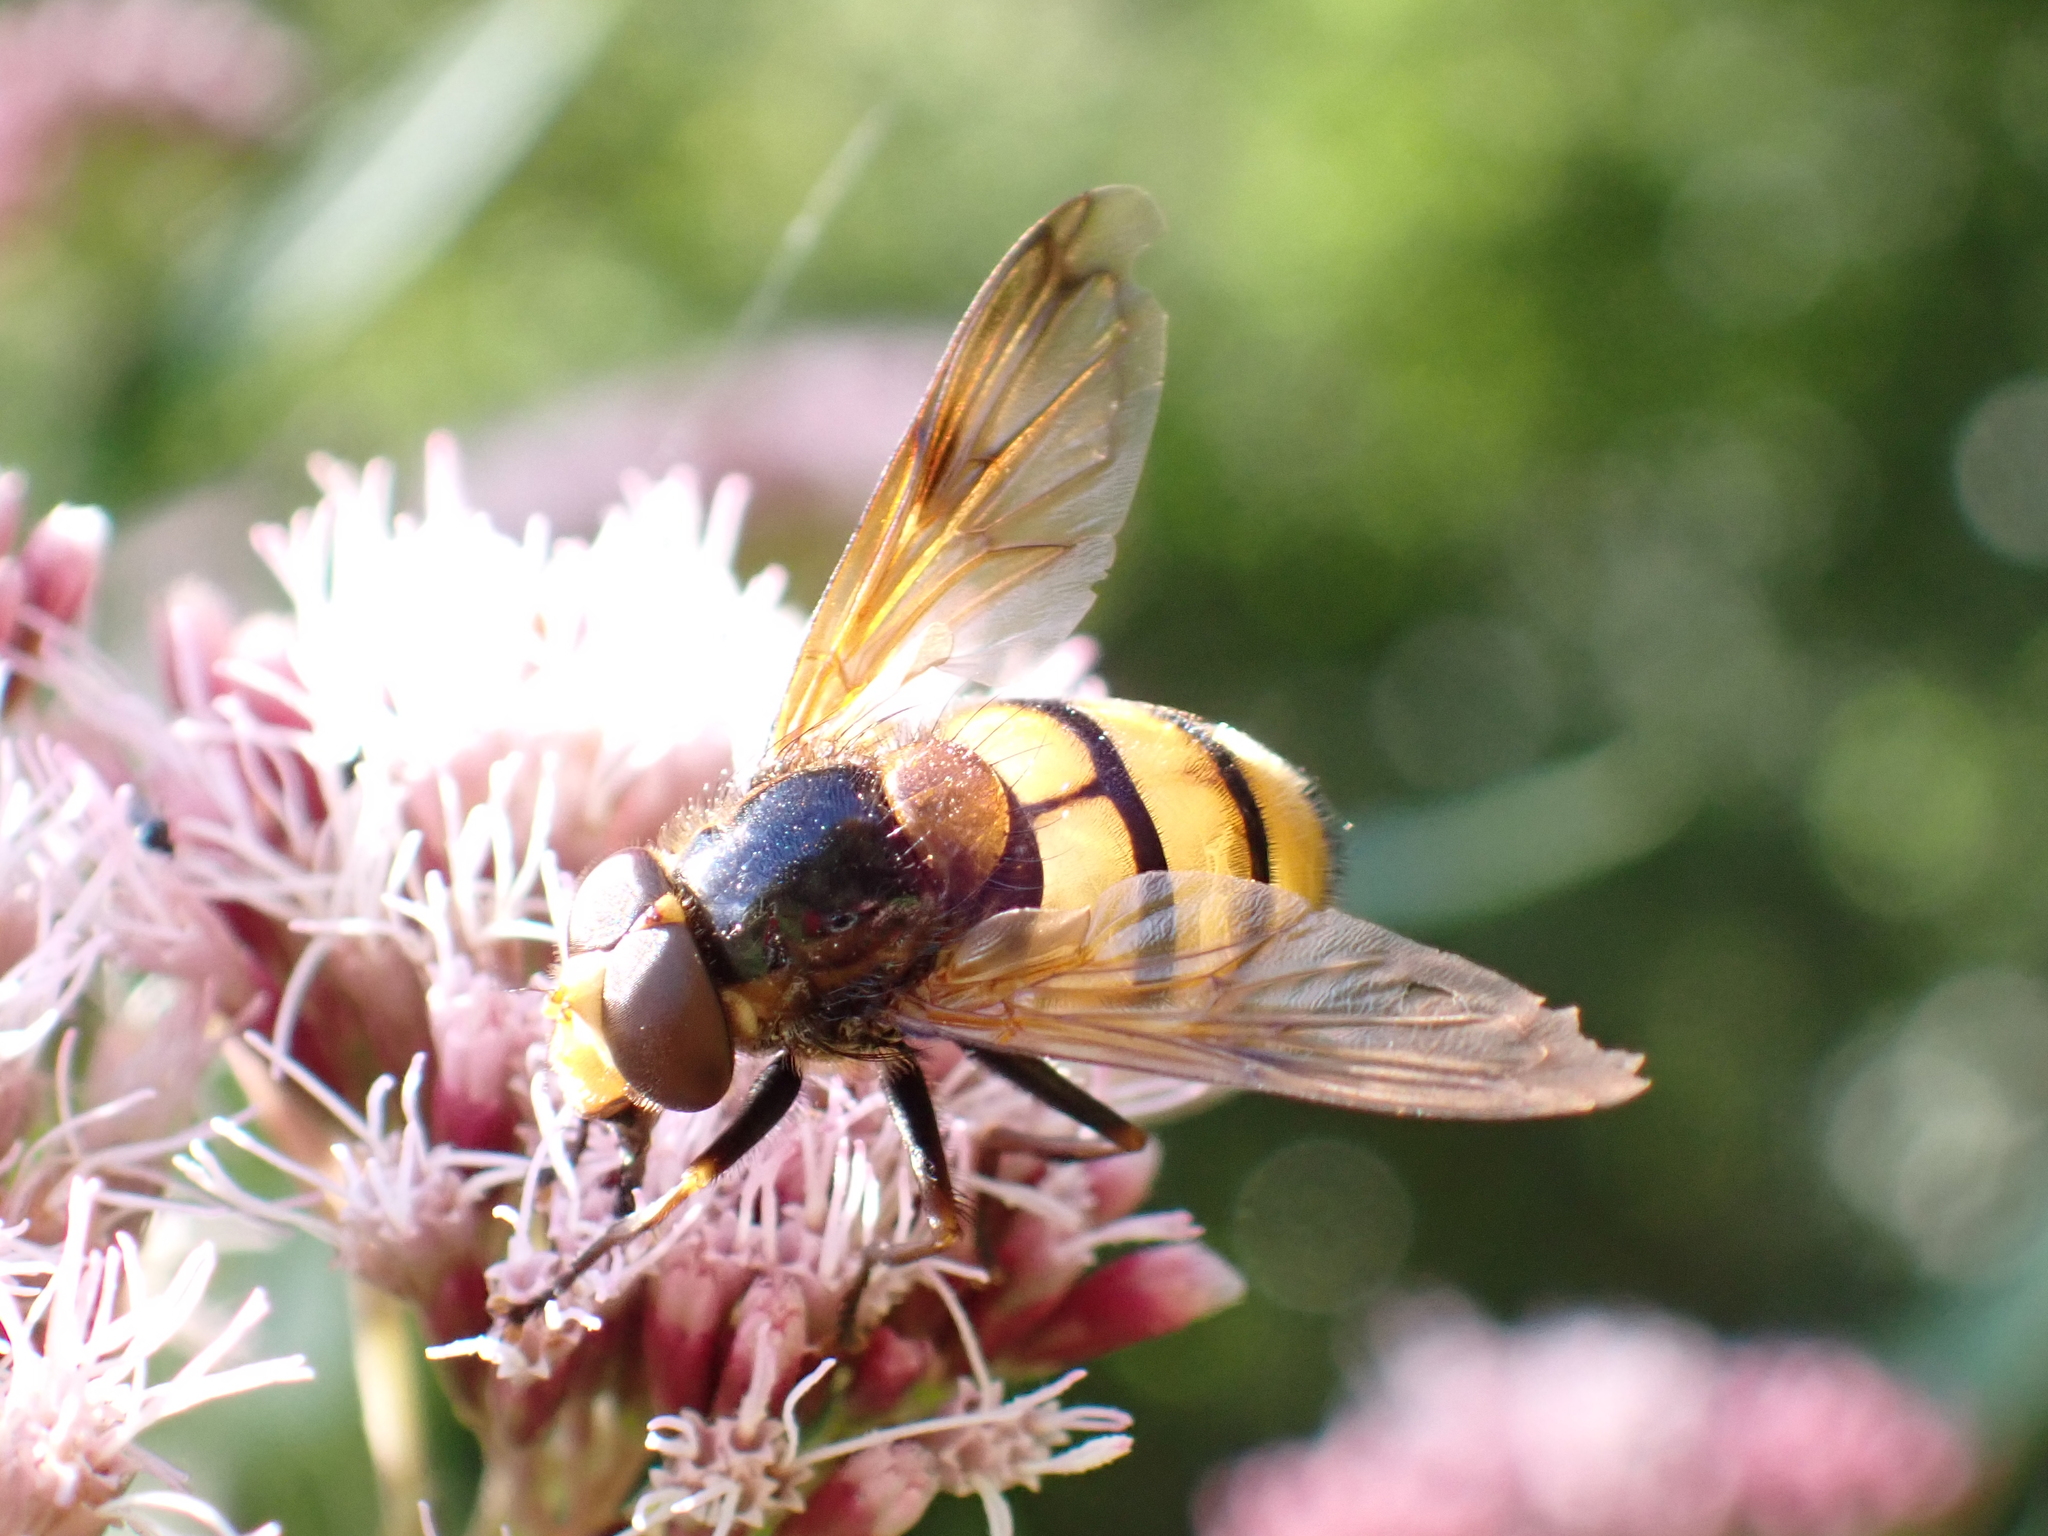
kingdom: Animalia
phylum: Arthropoda
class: Insecta
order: Diptera
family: Syrphidae
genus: Volucella
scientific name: Volucella inanis
